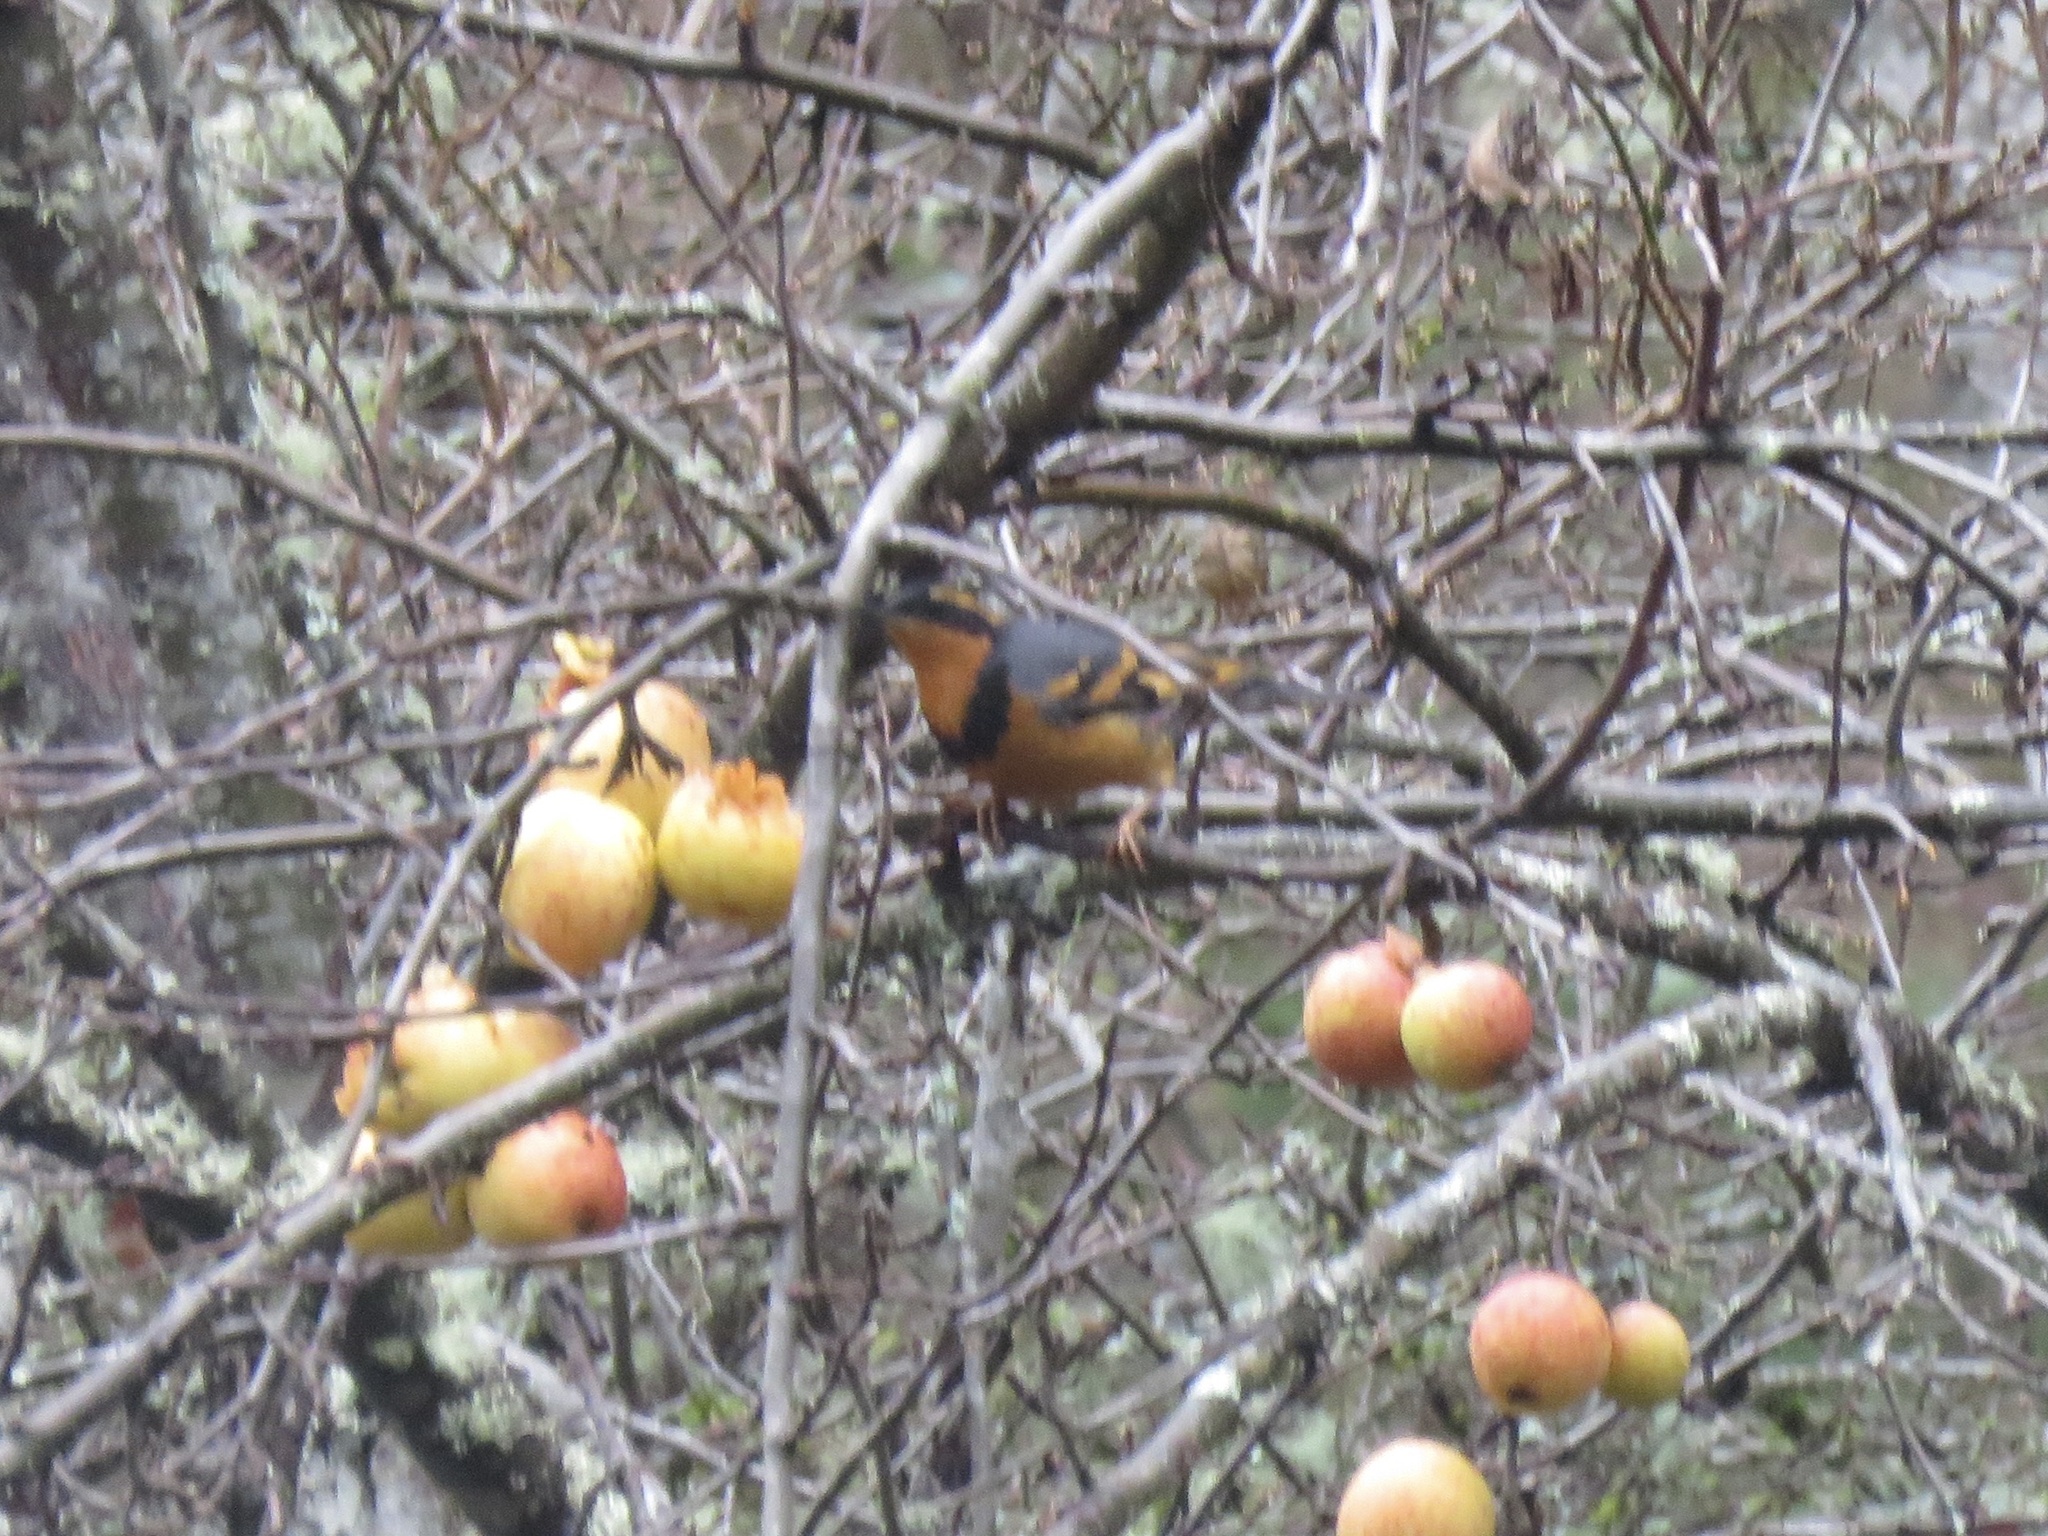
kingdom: Animalia
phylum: Chordata
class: Aves
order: Passeriformes
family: Turdidae
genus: Ixoreus
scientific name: Ixoreus naevius
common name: Varied thrush
